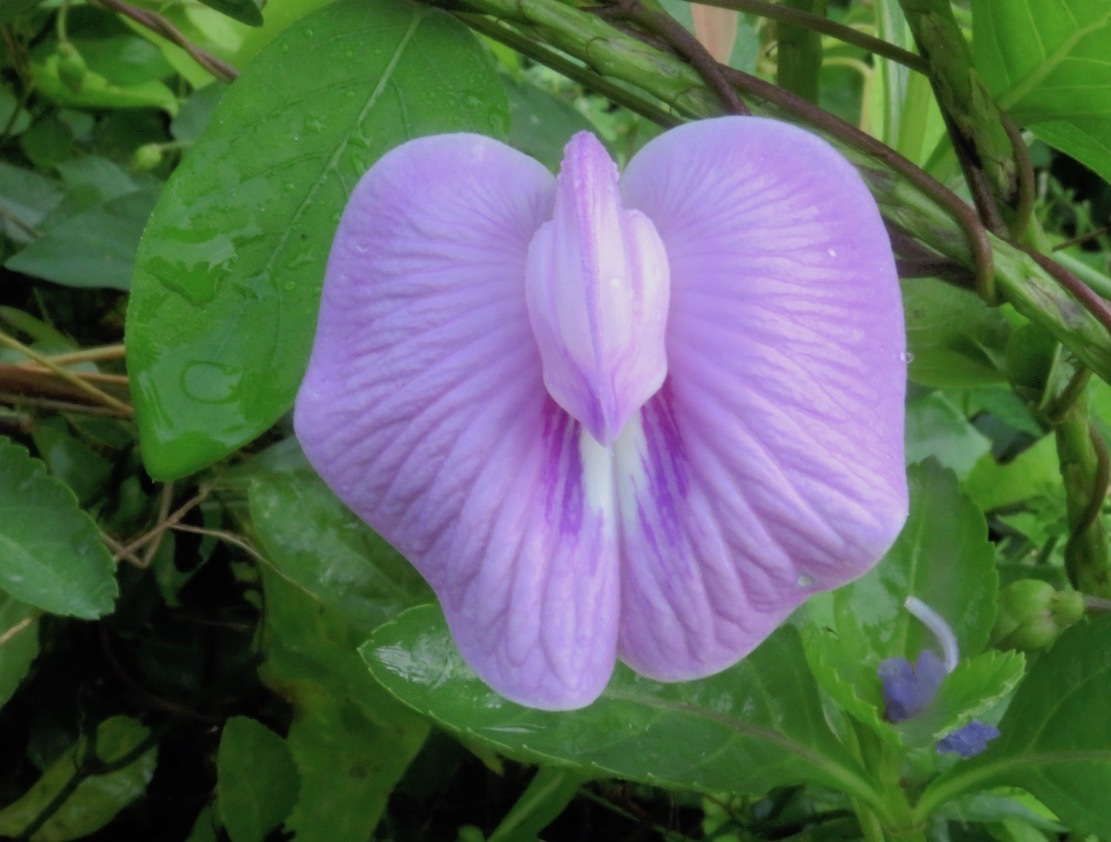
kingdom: Plantae
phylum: Tracheophyta
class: Magnoliopsida
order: Fabales
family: Fabaceae
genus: Centrosema
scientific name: Centrosema virginianum
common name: Butterfly-pea
